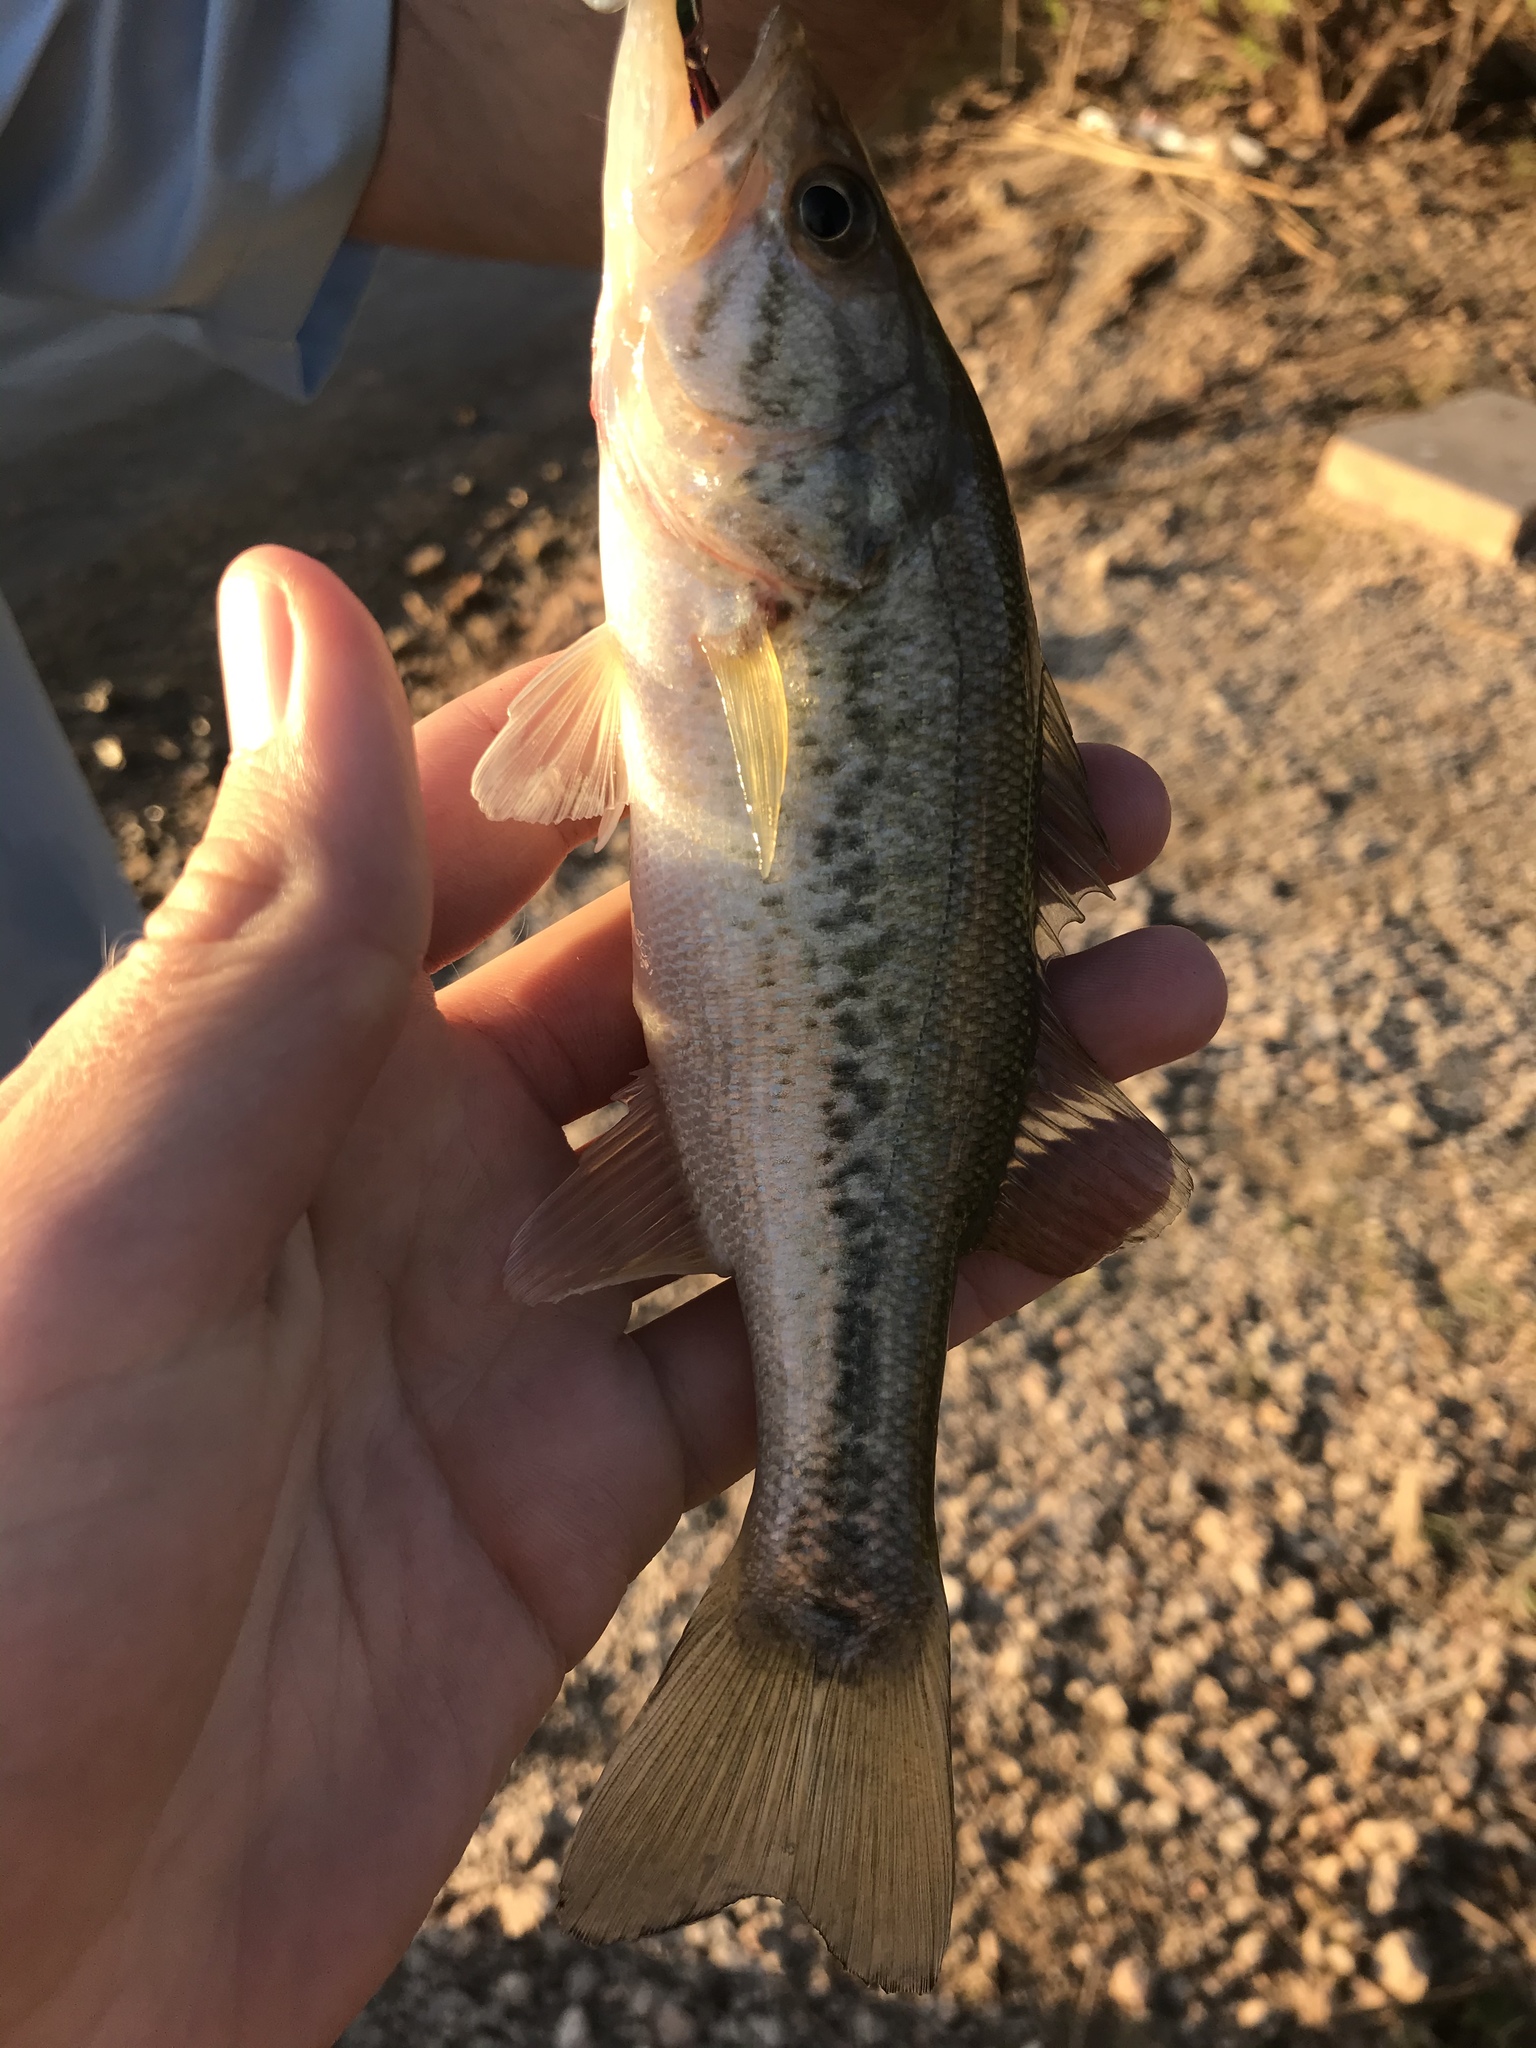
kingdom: Animalia
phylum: Chordata
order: Perciformes
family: Centrarchidae
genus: Micropterus
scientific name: Micropterus
